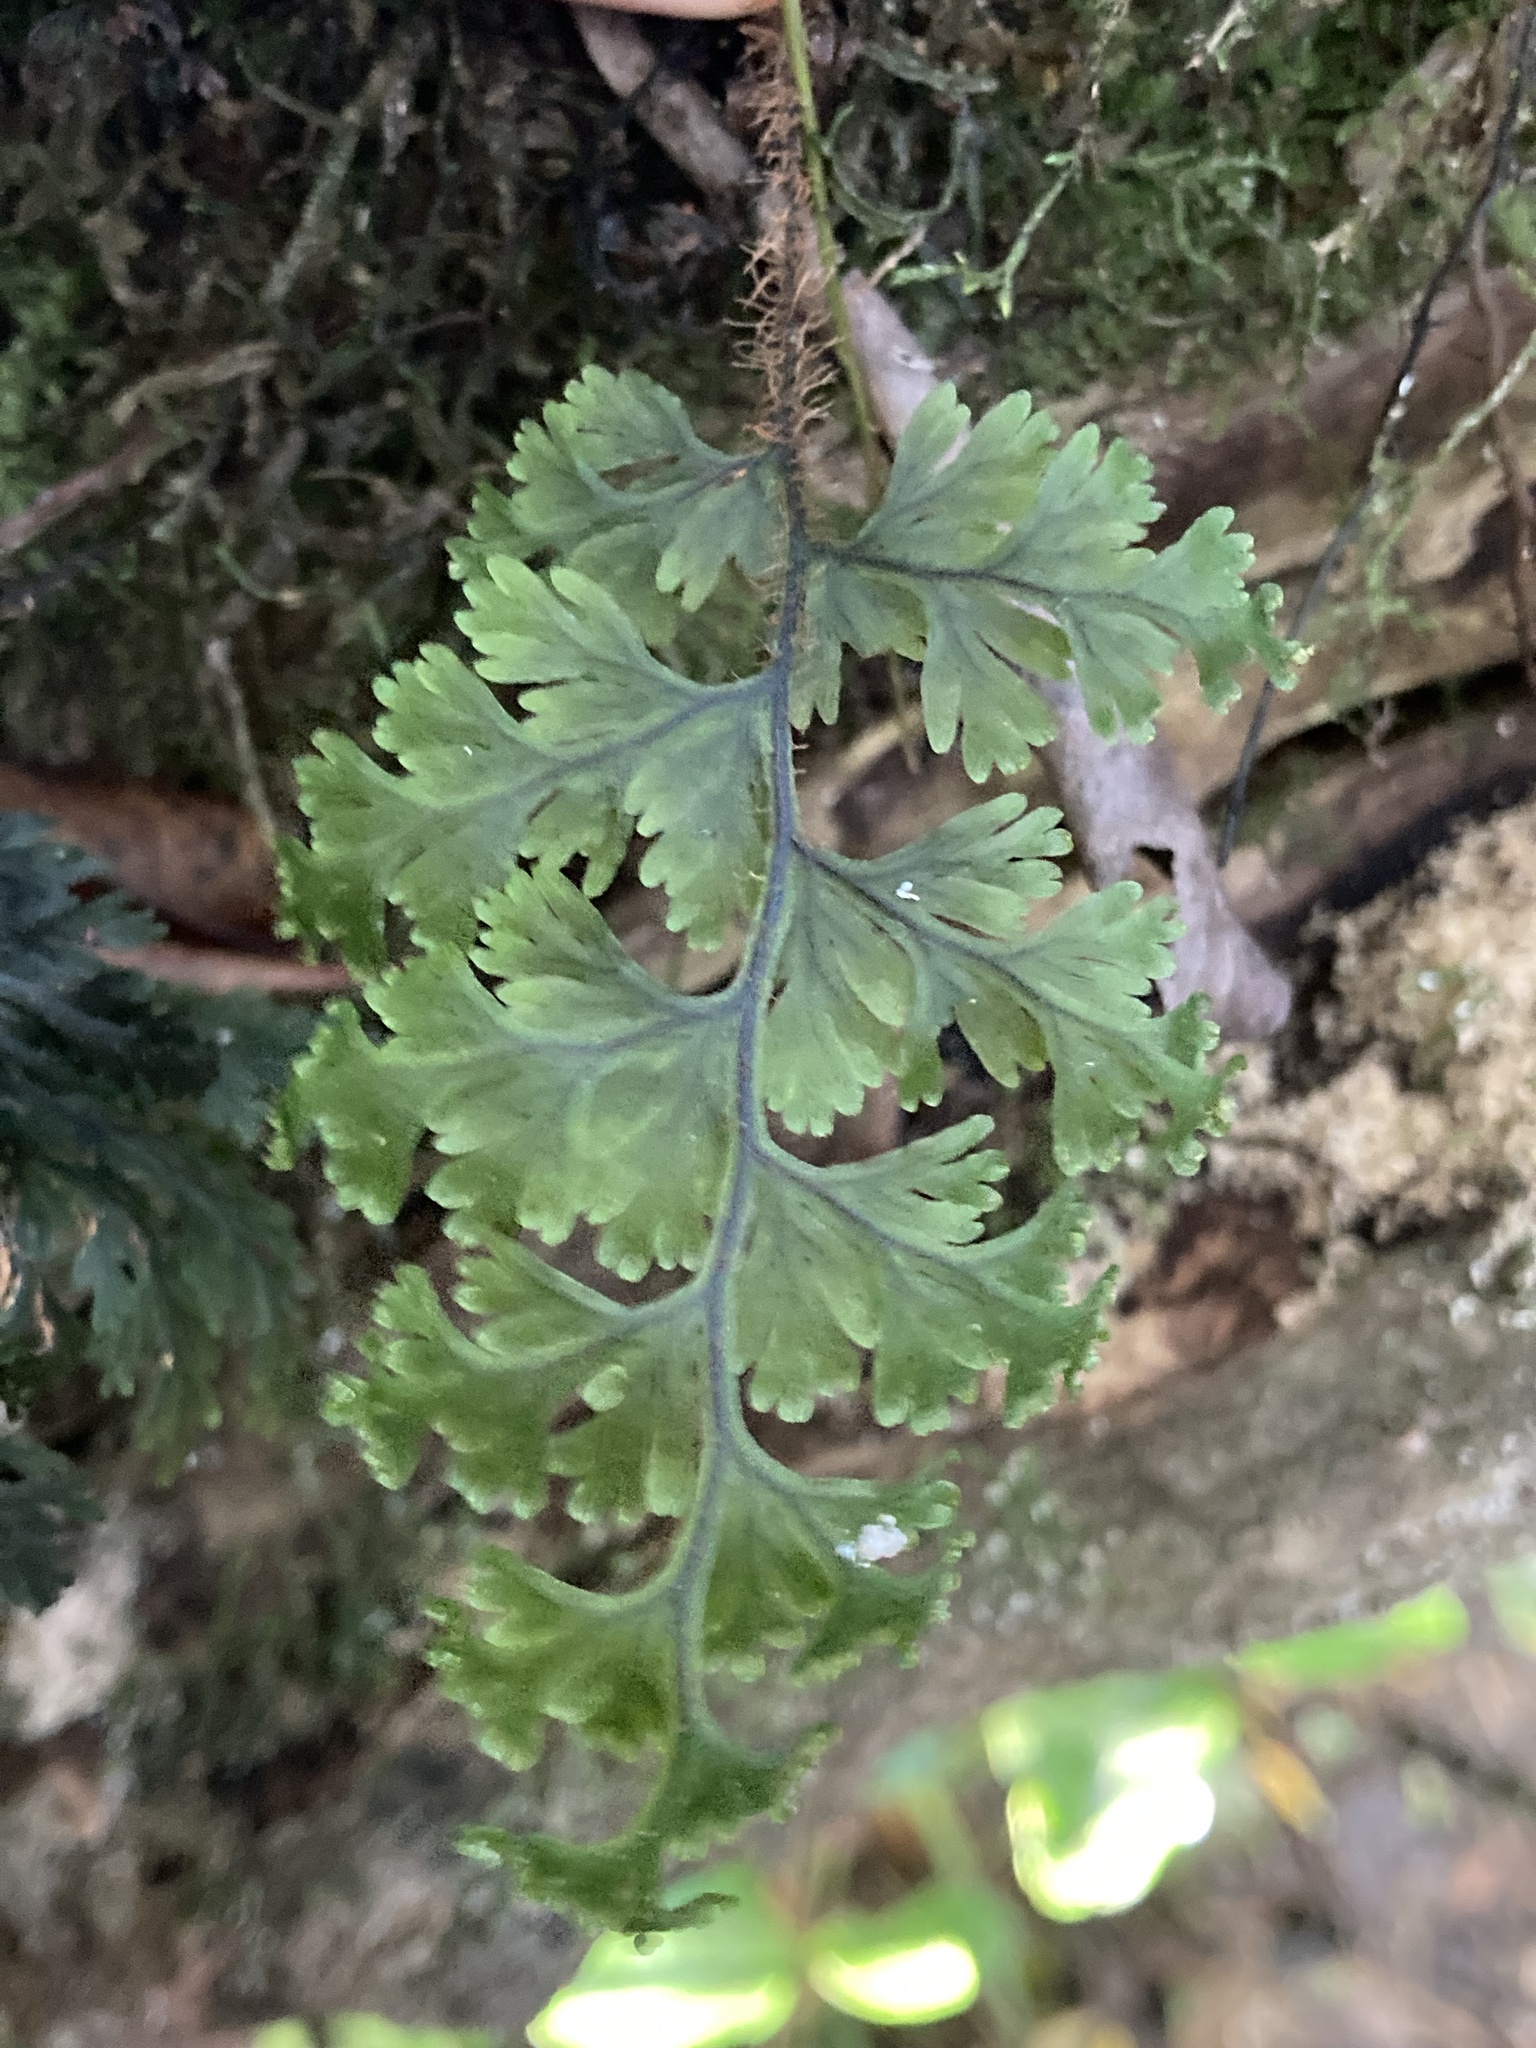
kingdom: Plantae
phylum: Tracheophyta
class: Polypodiopsida
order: Hymenophyllales
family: Hymenophyllaceae
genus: Hymenophyllum
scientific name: Hymenophyllum scabrum
